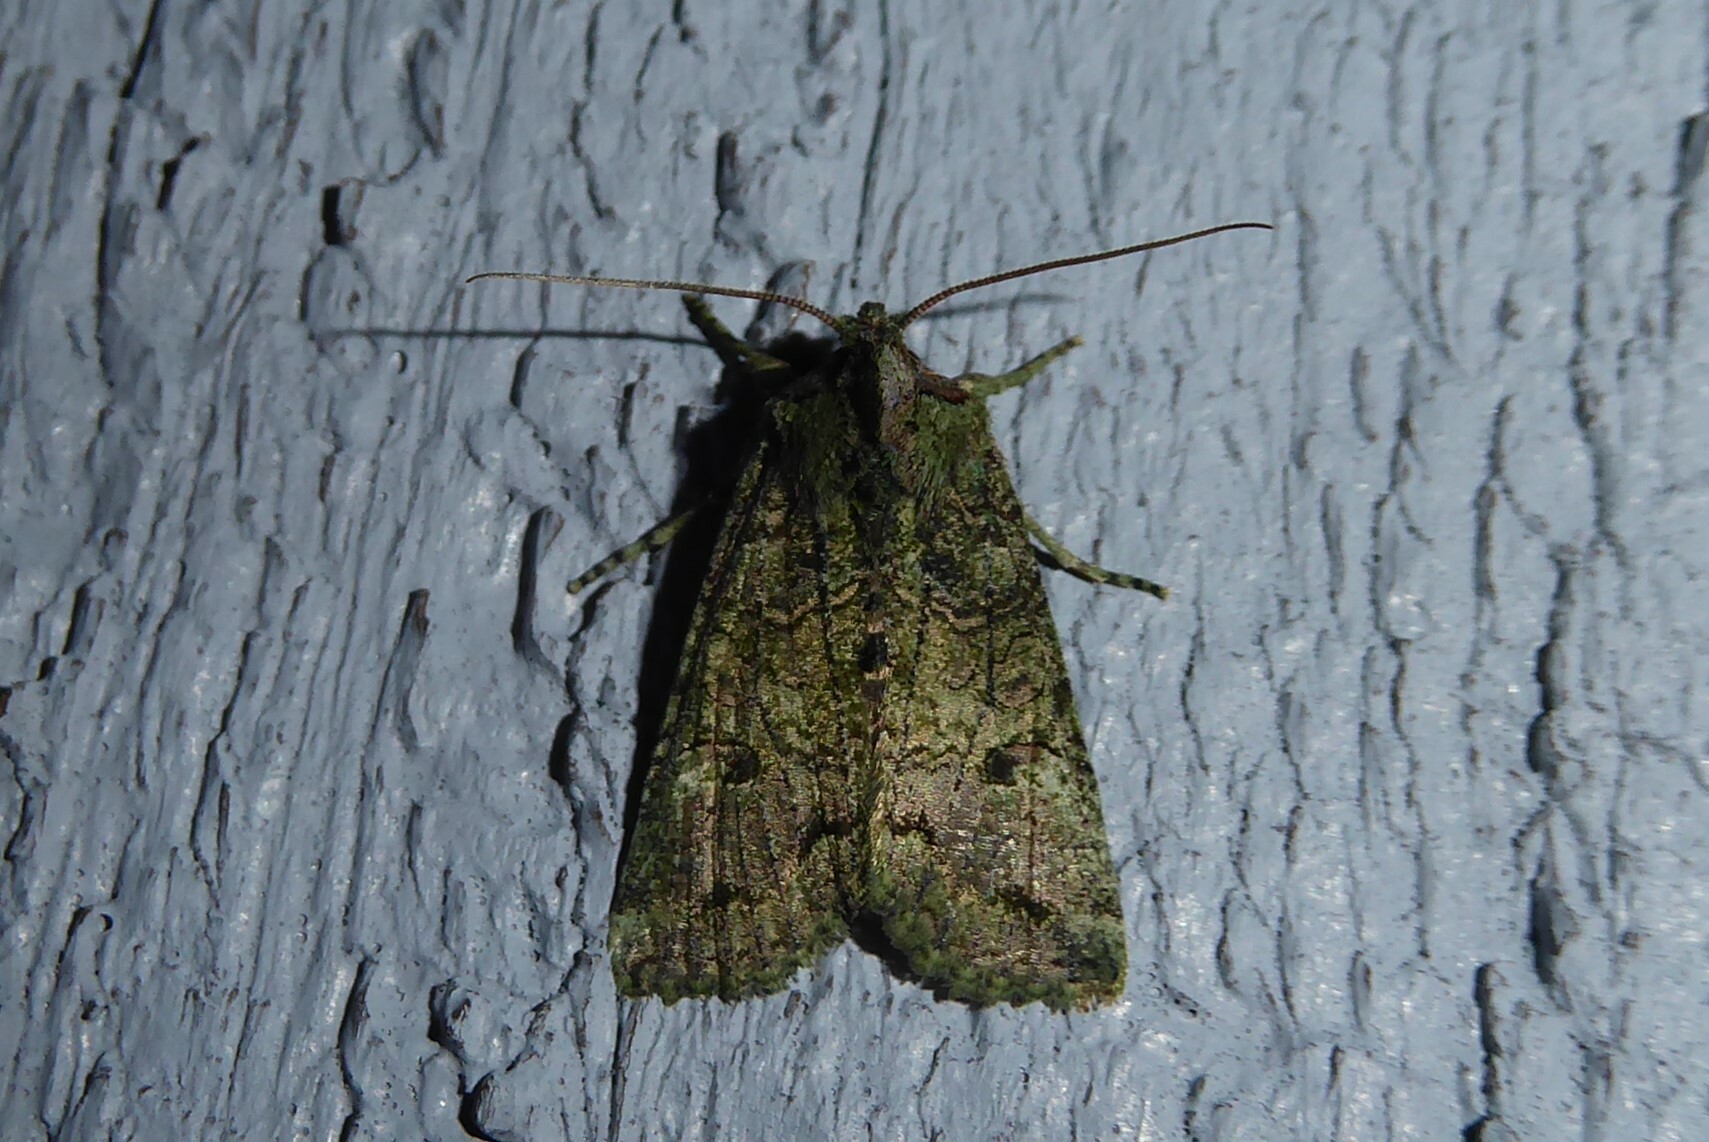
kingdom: Animalia
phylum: Arthropoda
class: Insecta
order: Lepidoptera
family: Noctuidae
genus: Meterana
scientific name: Meterana levis
